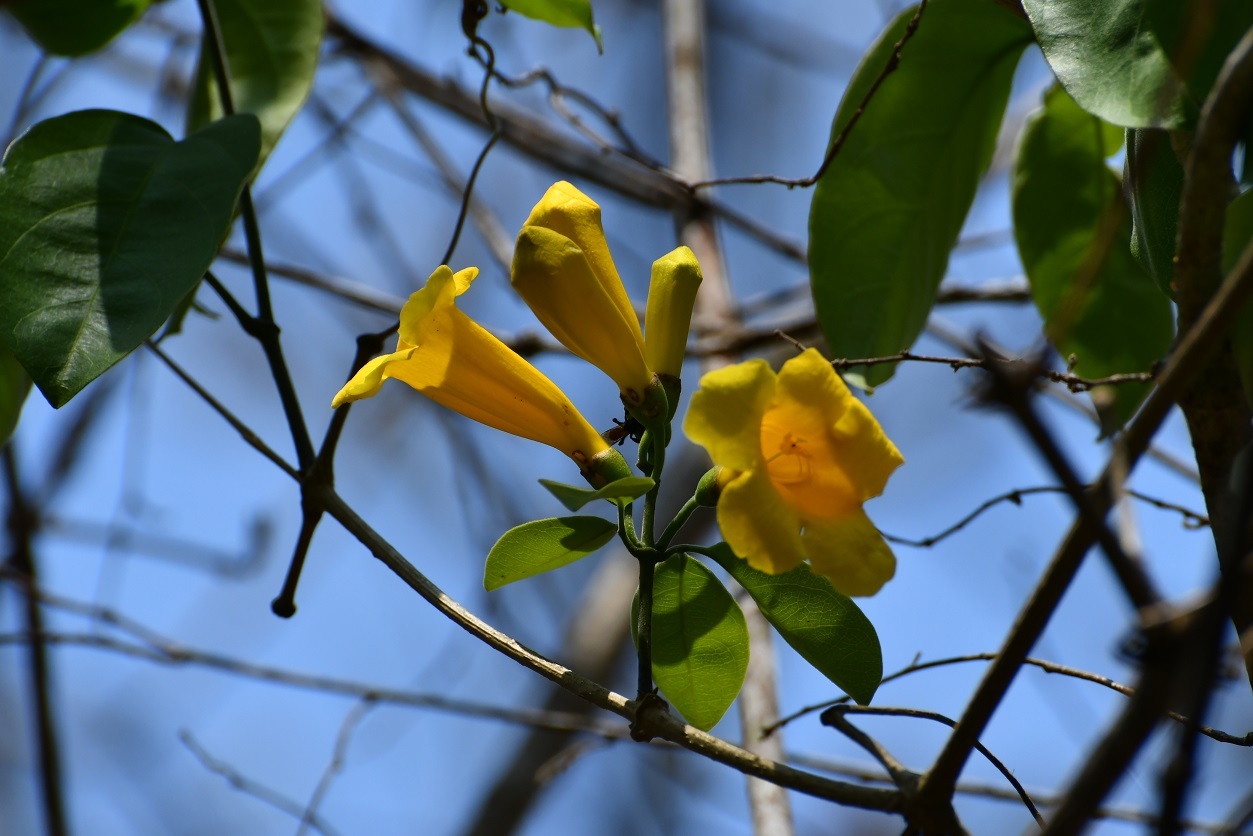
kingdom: Plantae
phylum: Tracheophyta
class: Magnoliopsida
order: Lamiales
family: Bignoniaceae
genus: Anemopaegma
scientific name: Anemopaegma chrysanthum
